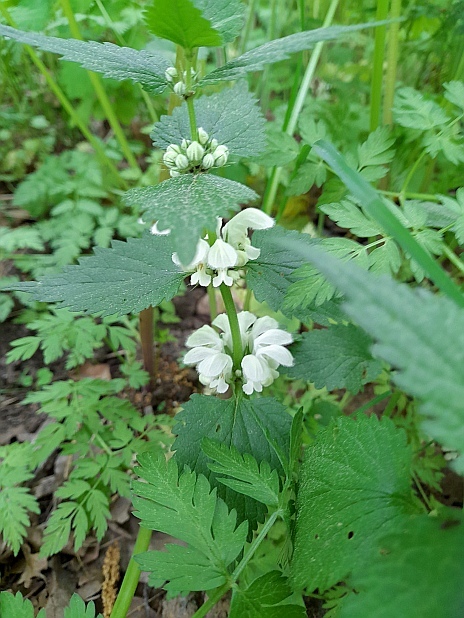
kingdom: Plantae
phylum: Tracheophyta
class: Magnoliopsida
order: Lamiales
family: Lamiaceae
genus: Lamium
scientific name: Lamium album
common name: White dead-nettle
